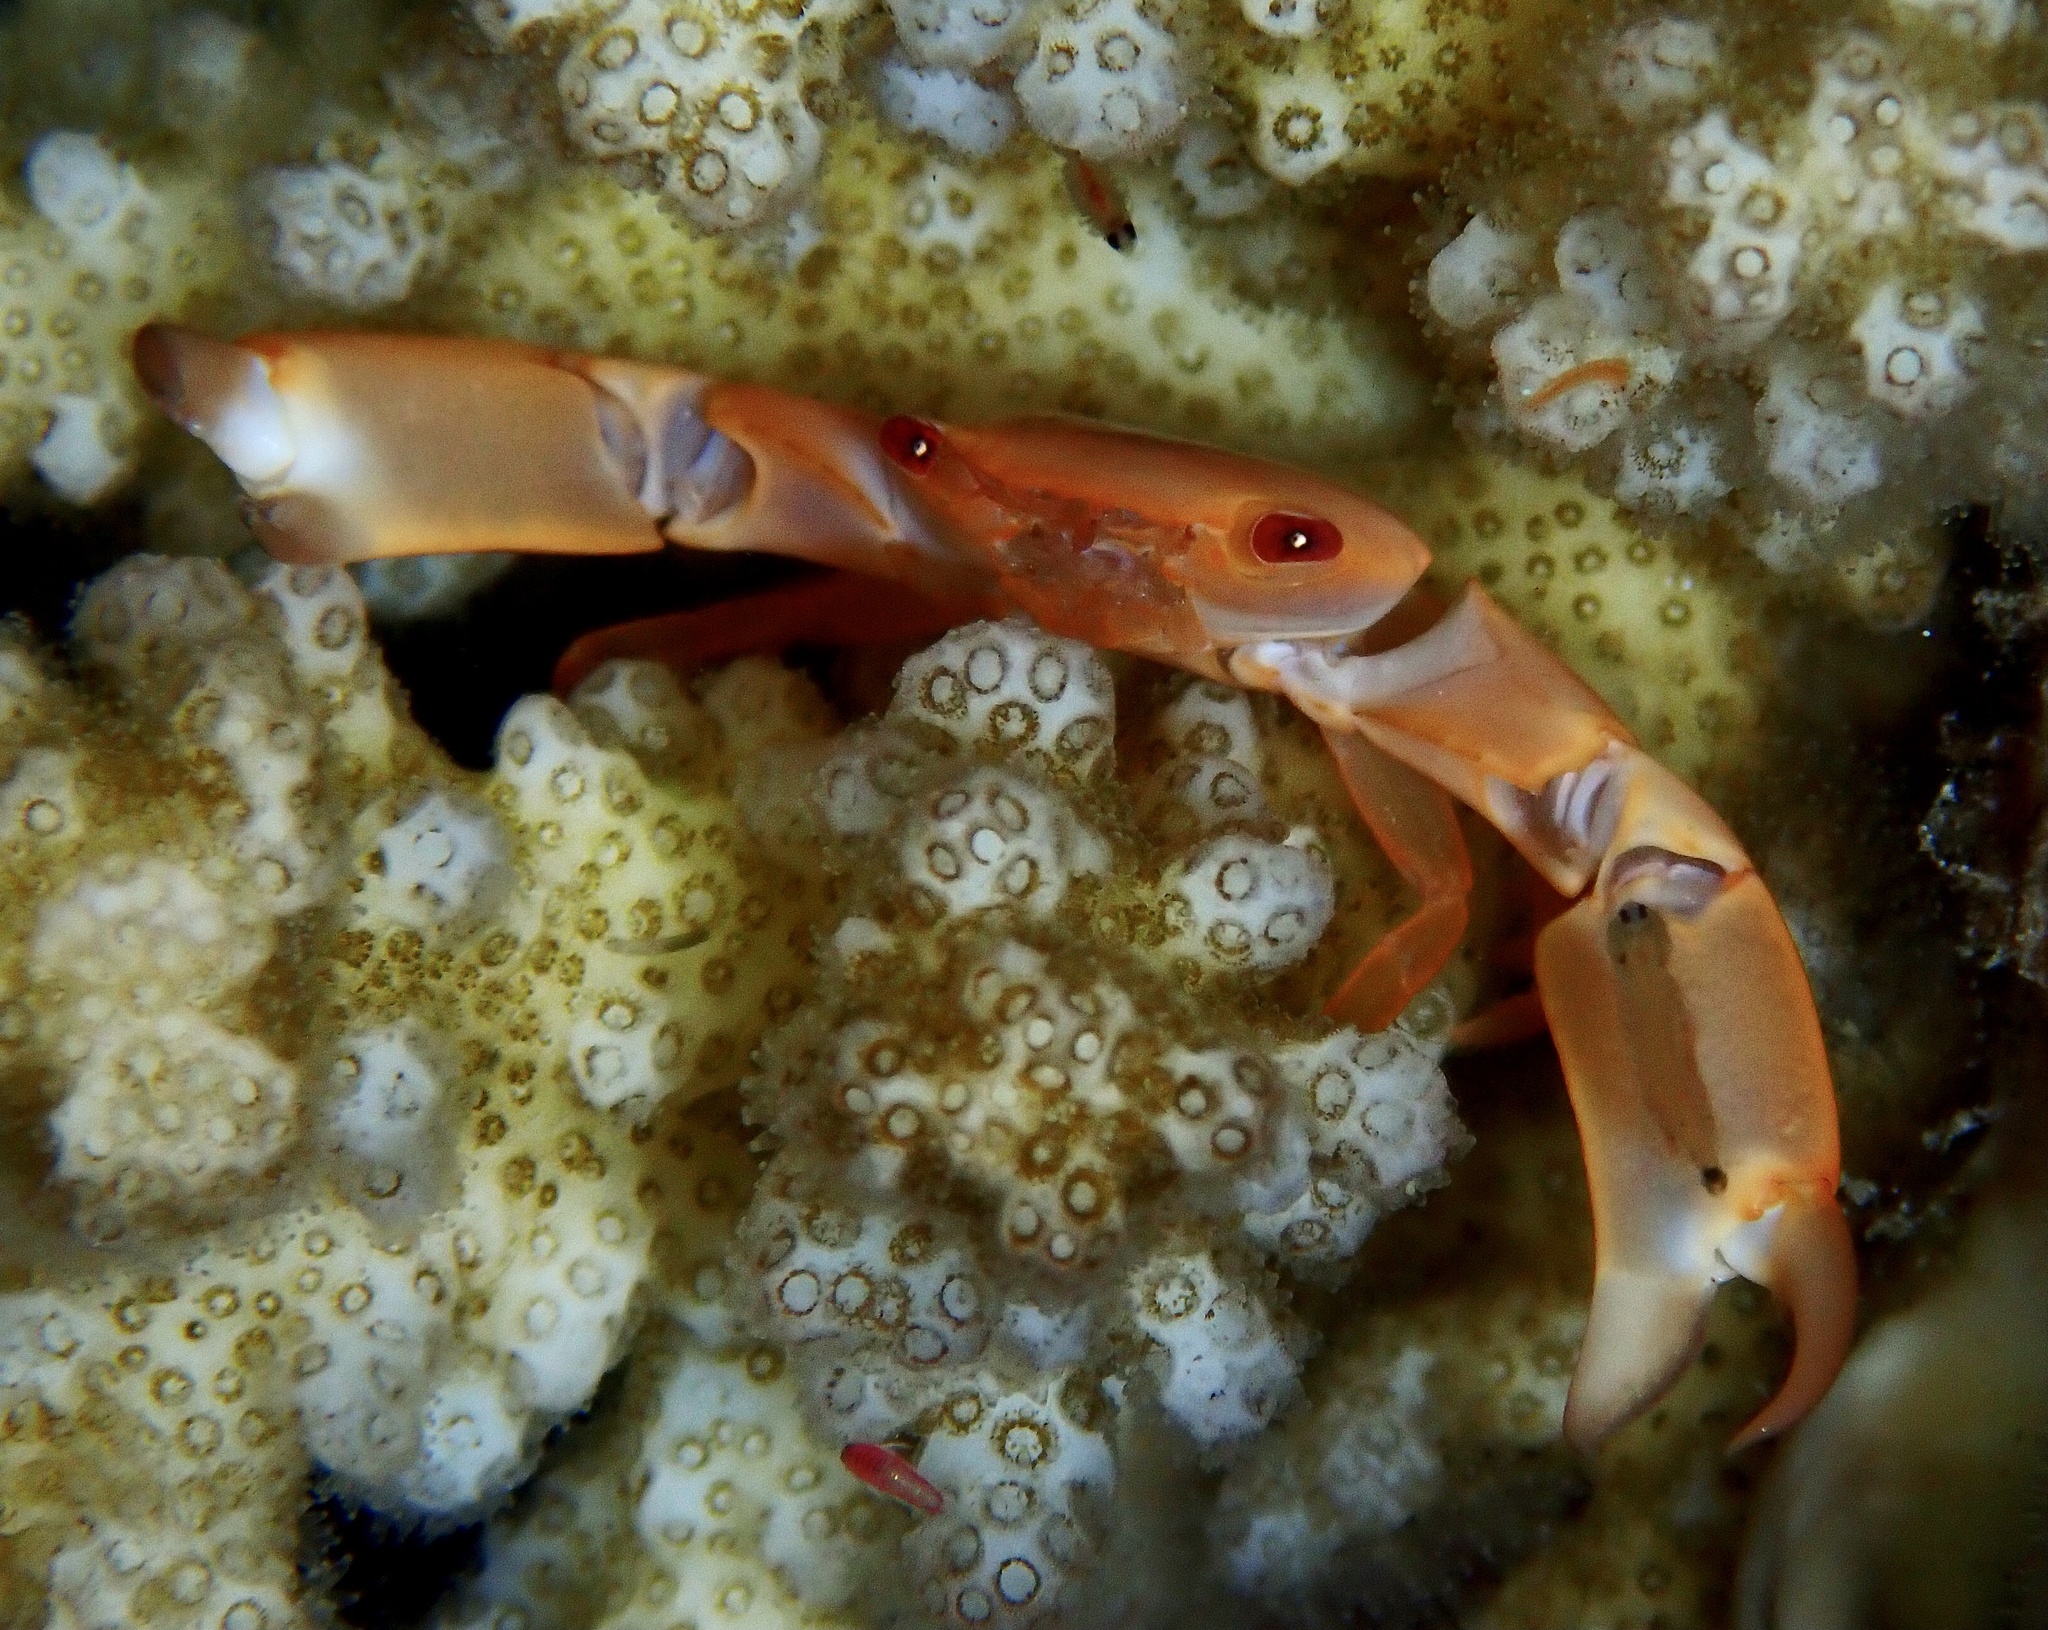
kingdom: Animalia
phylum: Arthropoda
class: Malacostraca
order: Decapoda
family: Trapeziidae
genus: Trapezia
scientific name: Trapezia bidentata
